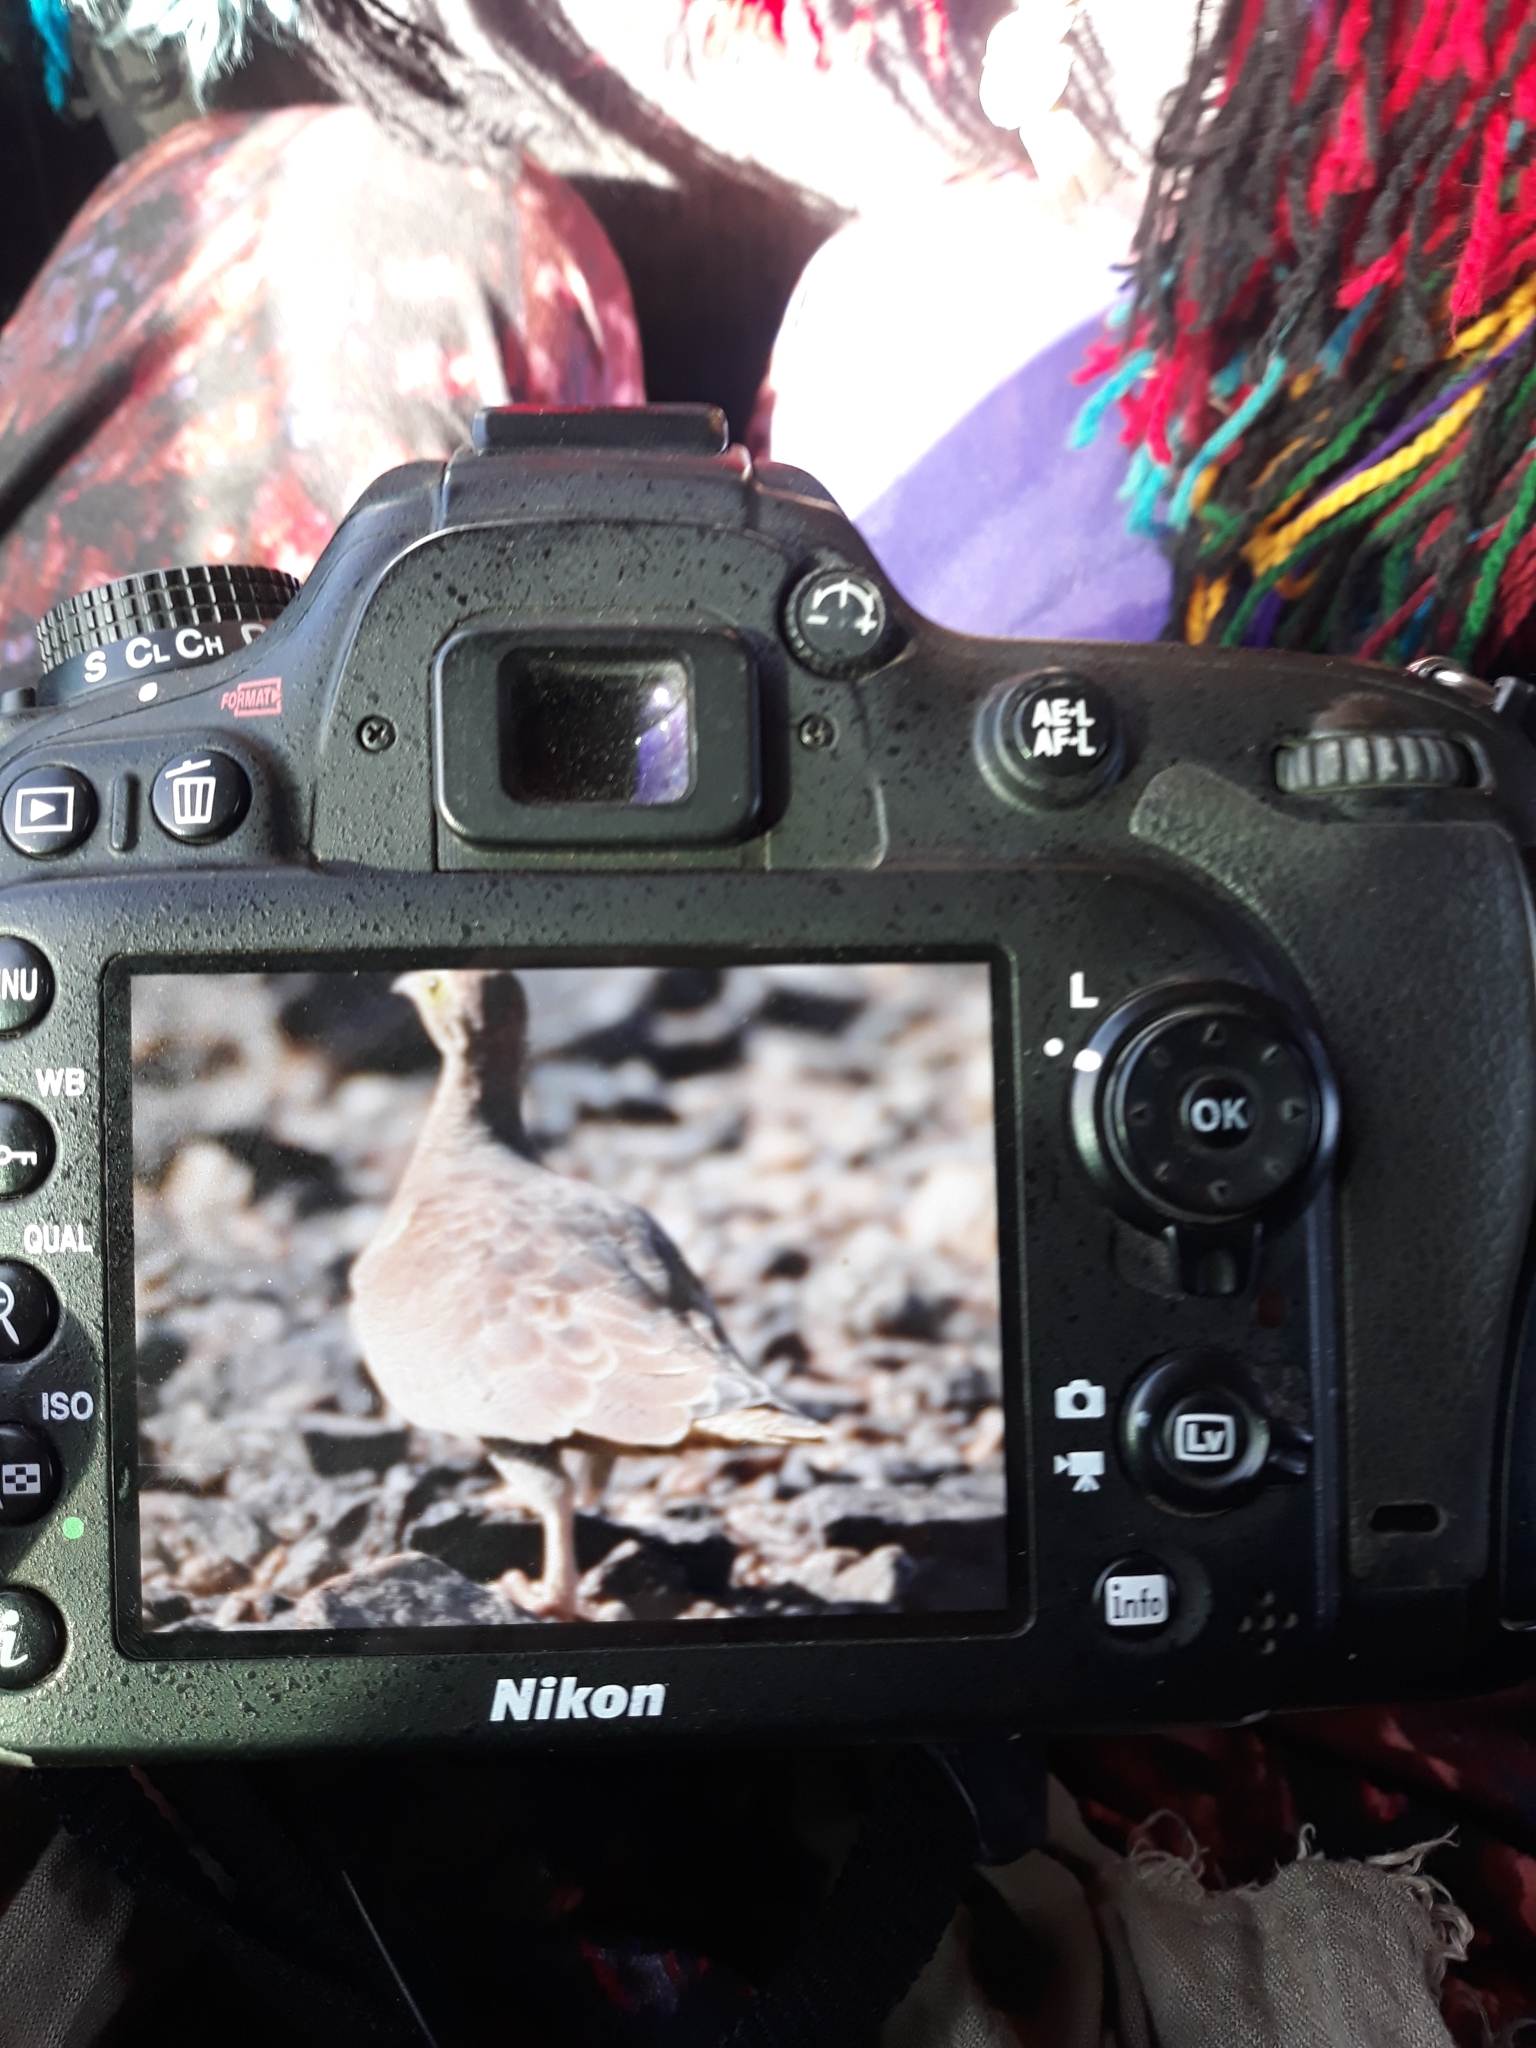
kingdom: Animalia
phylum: Chordata
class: Aves
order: Pteroclidiformes
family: Pteroclididae
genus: Pterocles
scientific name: Pterocles coronatus
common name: Crowned sandgrouse
